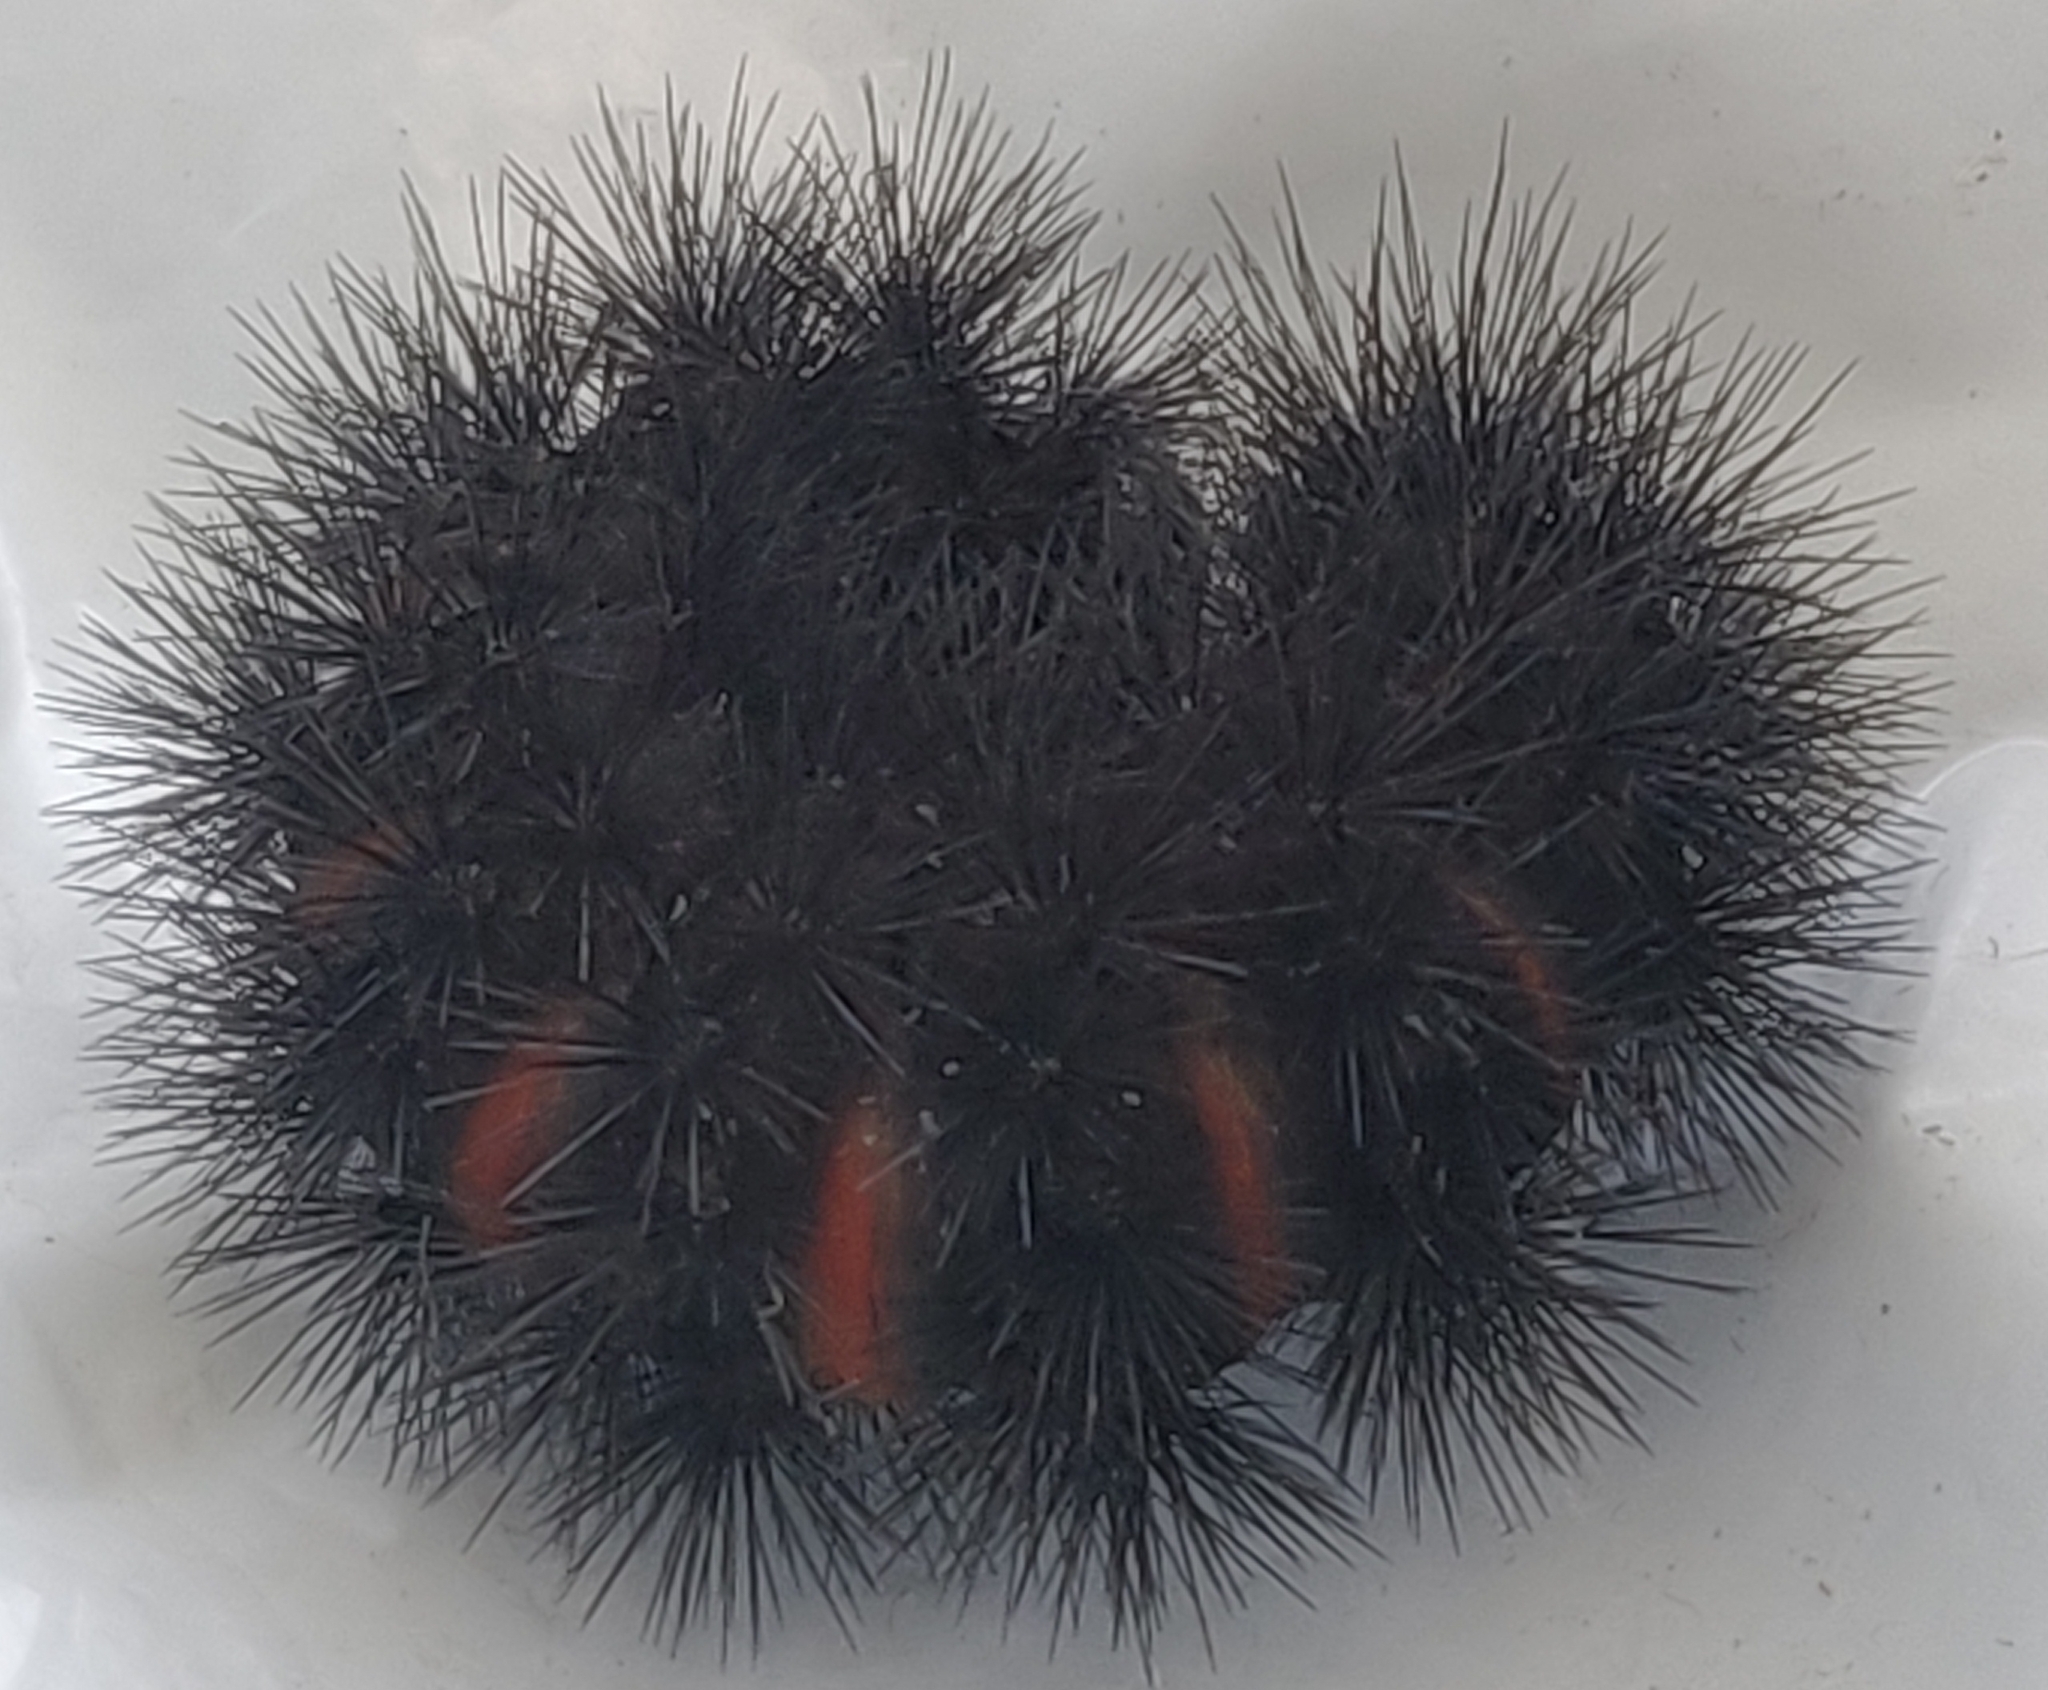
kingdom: Animalia
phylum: Arthropoda
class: Insecta
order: Lepidoptera
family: Erebidae
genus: Hypercompe
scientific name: Hypercompe scribonia
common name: Giant leopard moth
